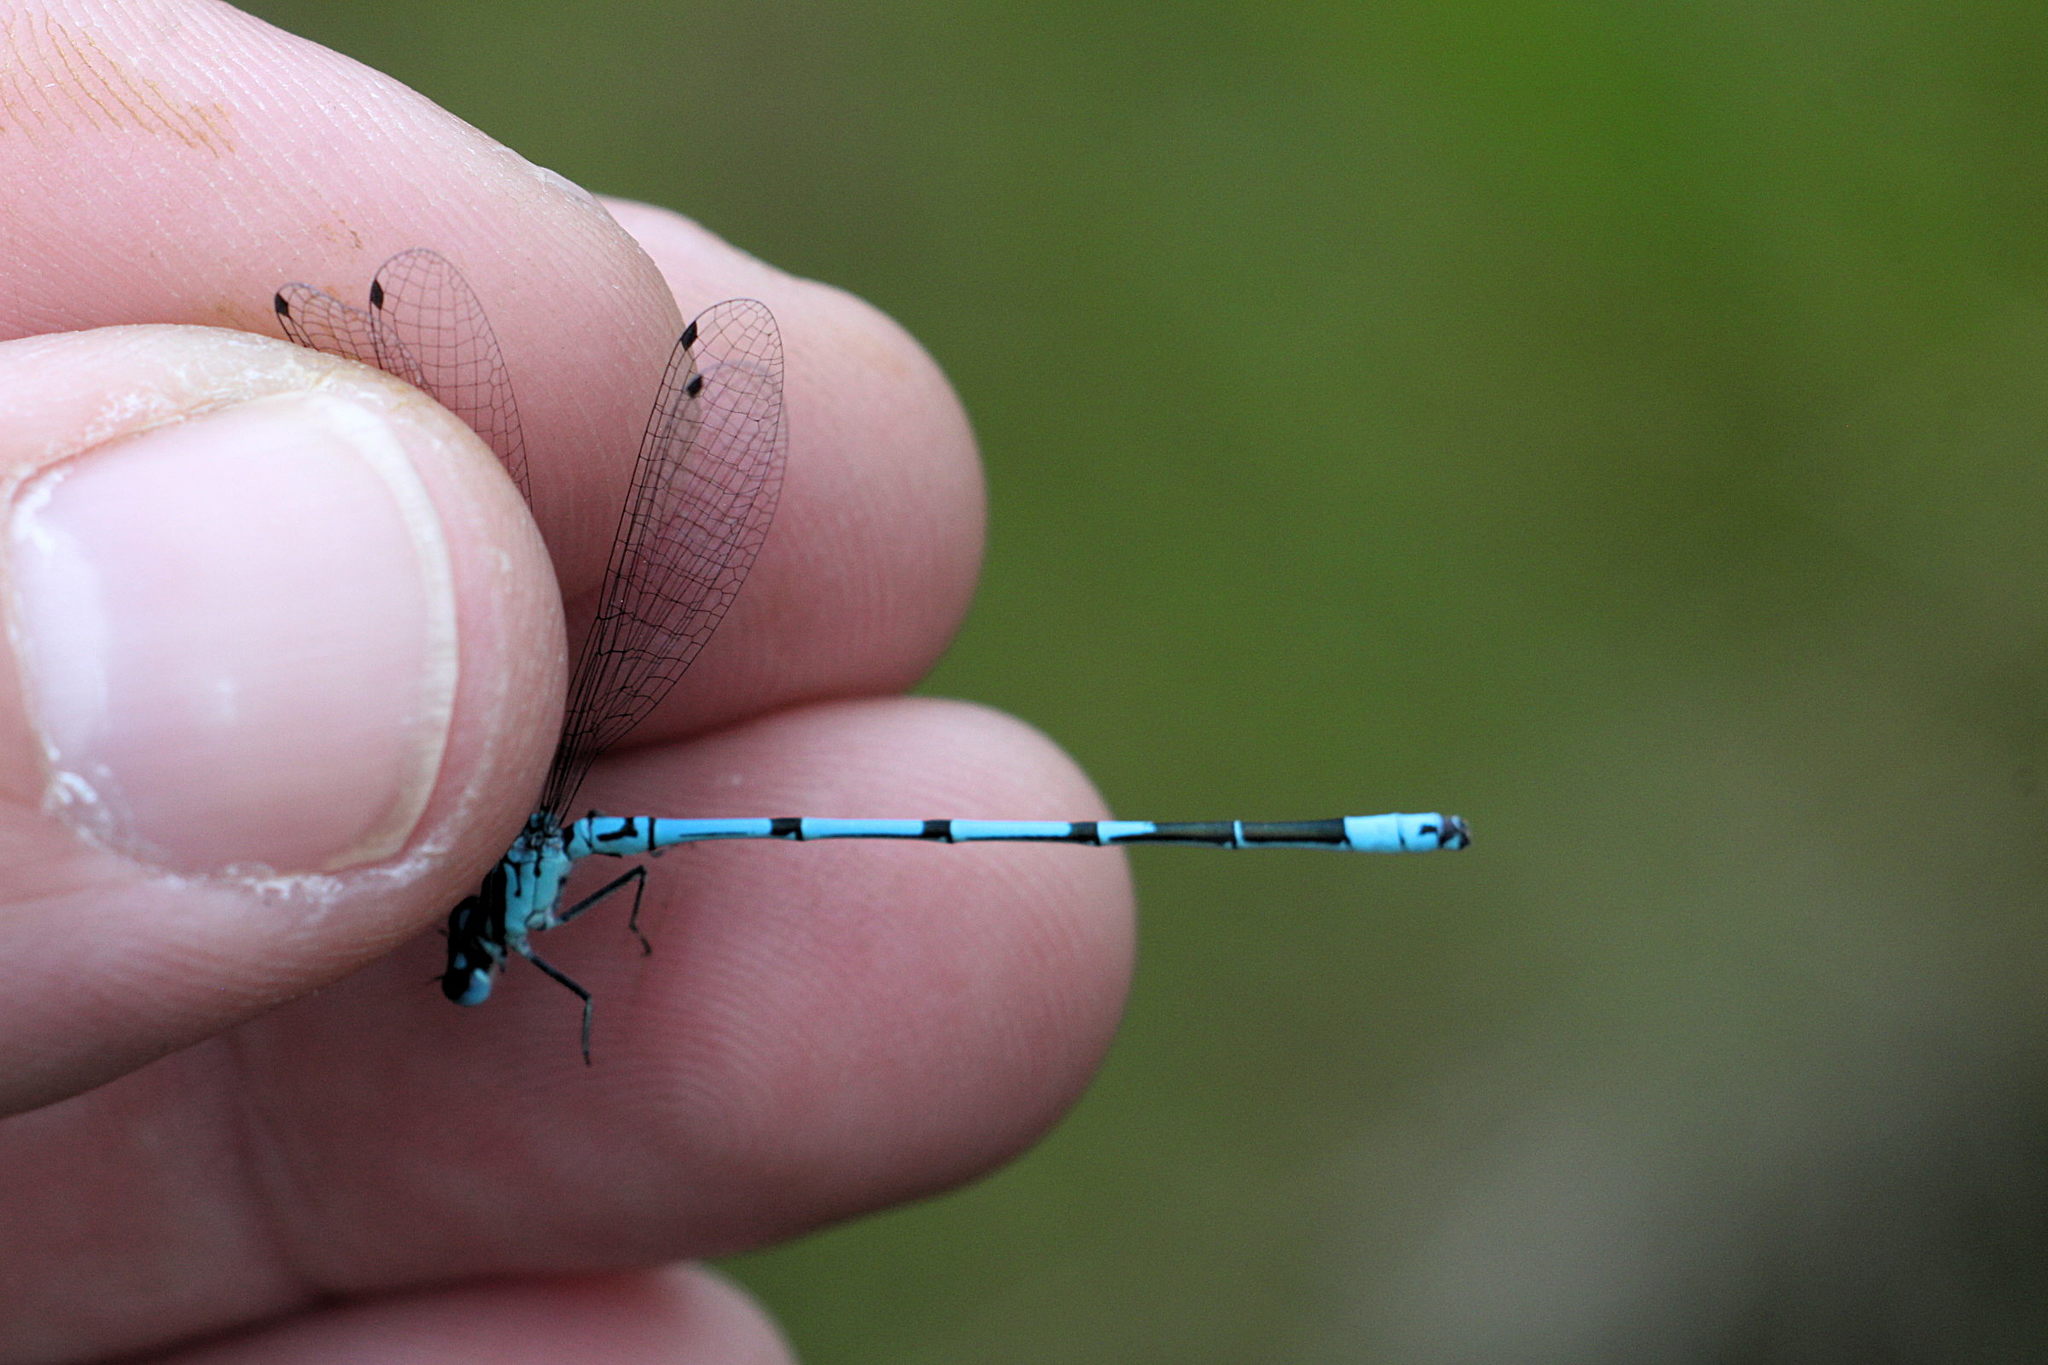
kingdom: Animalia
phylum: Arthropoda
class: Insecta
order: Odonata
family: Coenagrionidae
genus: Coenagrion
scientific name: Coenagrion puella
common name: Azure damselfly
